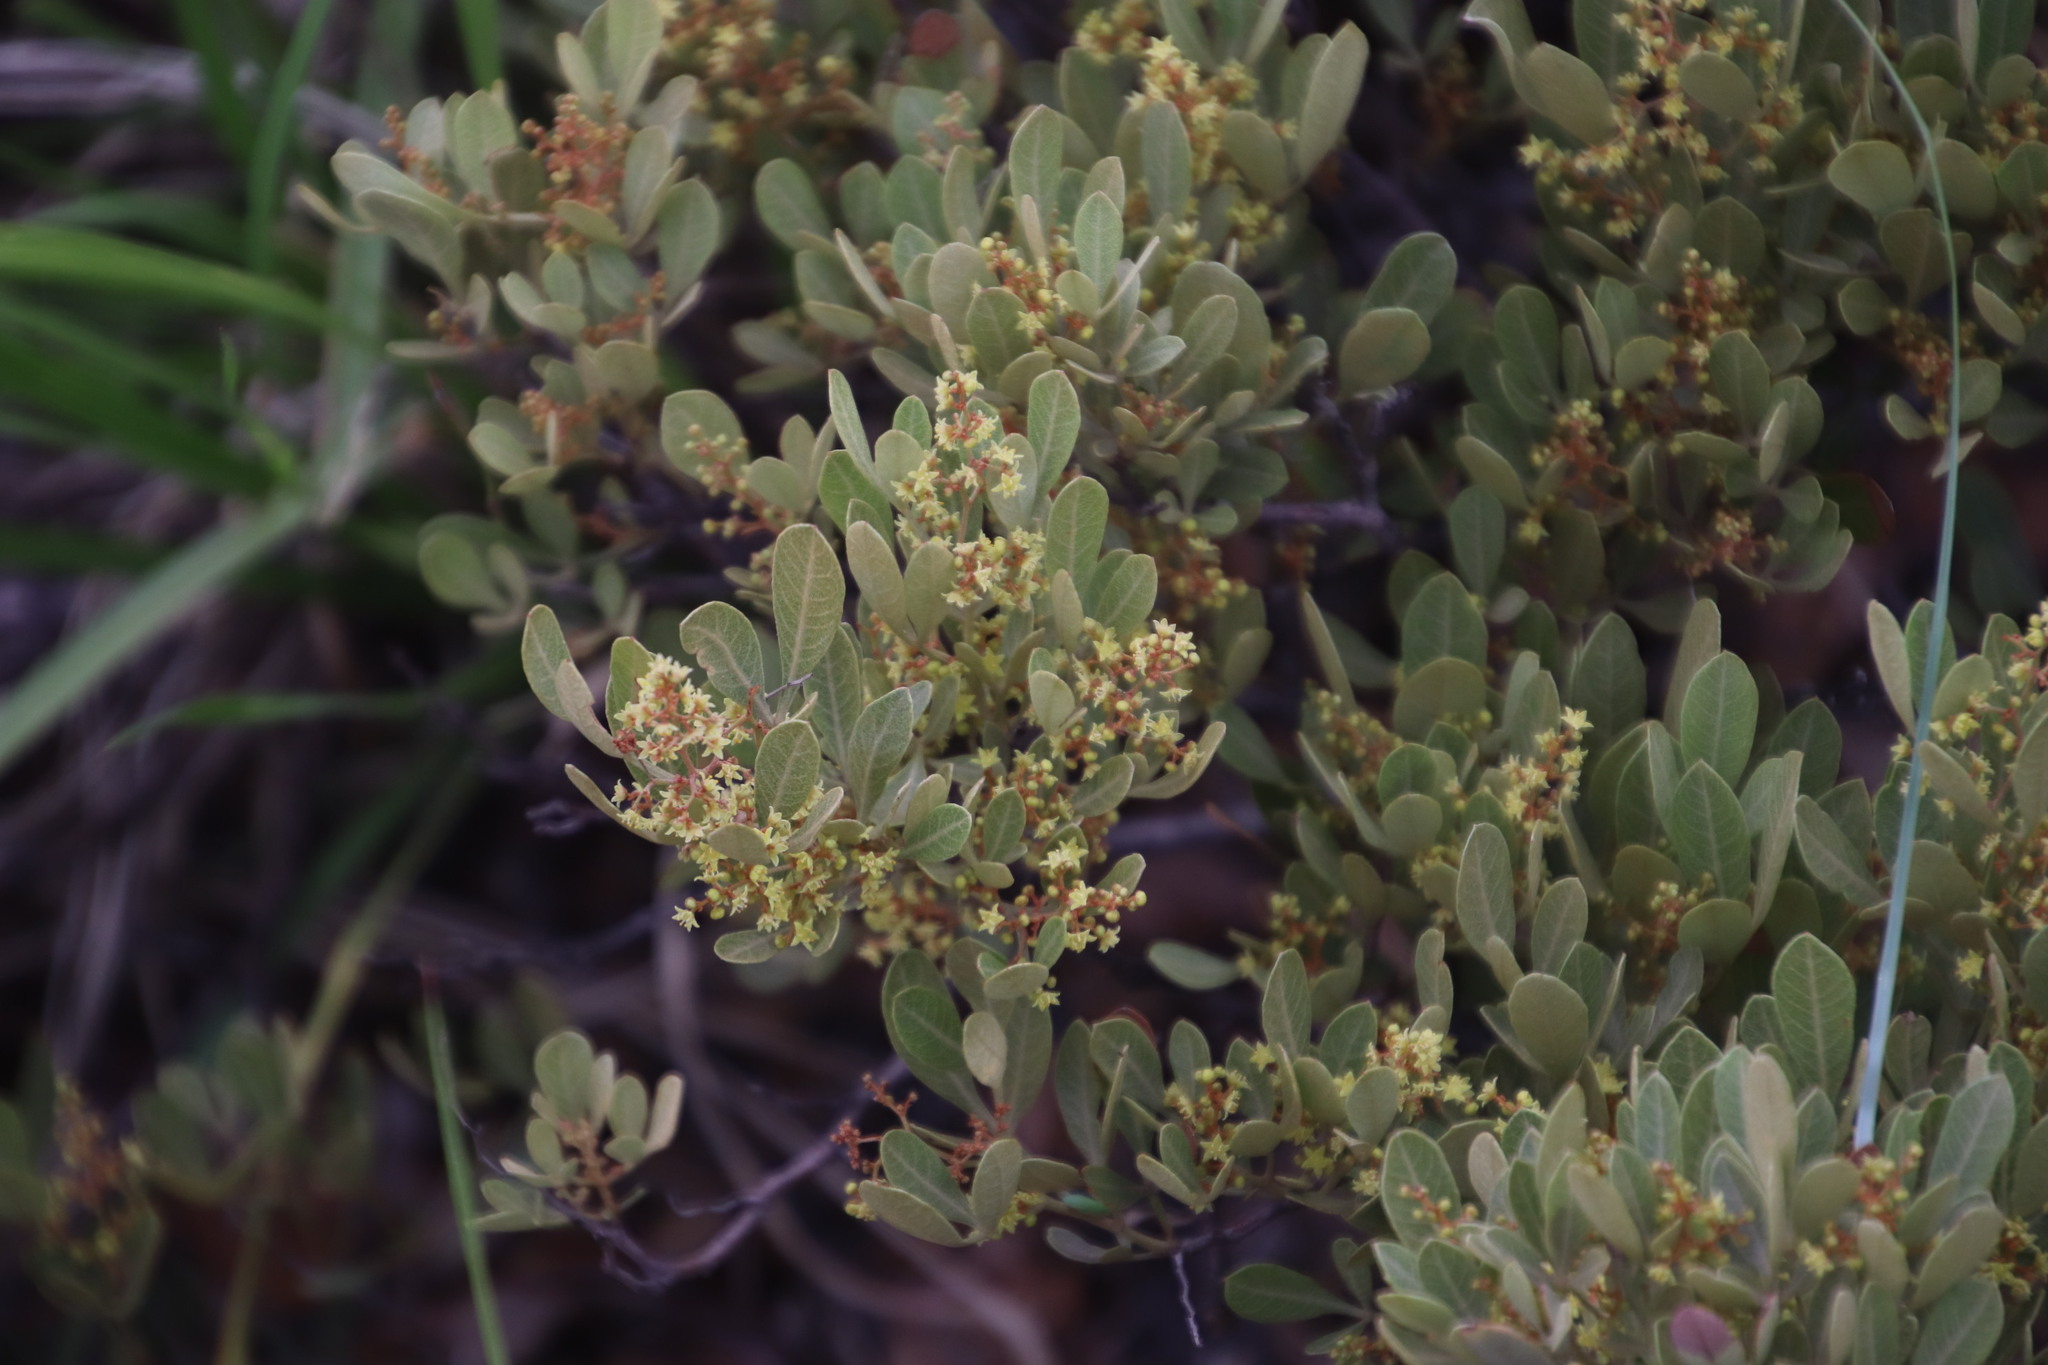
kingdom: Plantae
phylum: Tracheophyta
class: Magnoliopsida
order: Sapindales
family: Anacardiaceae
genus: Searsia
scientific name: Searsia magalismontana
